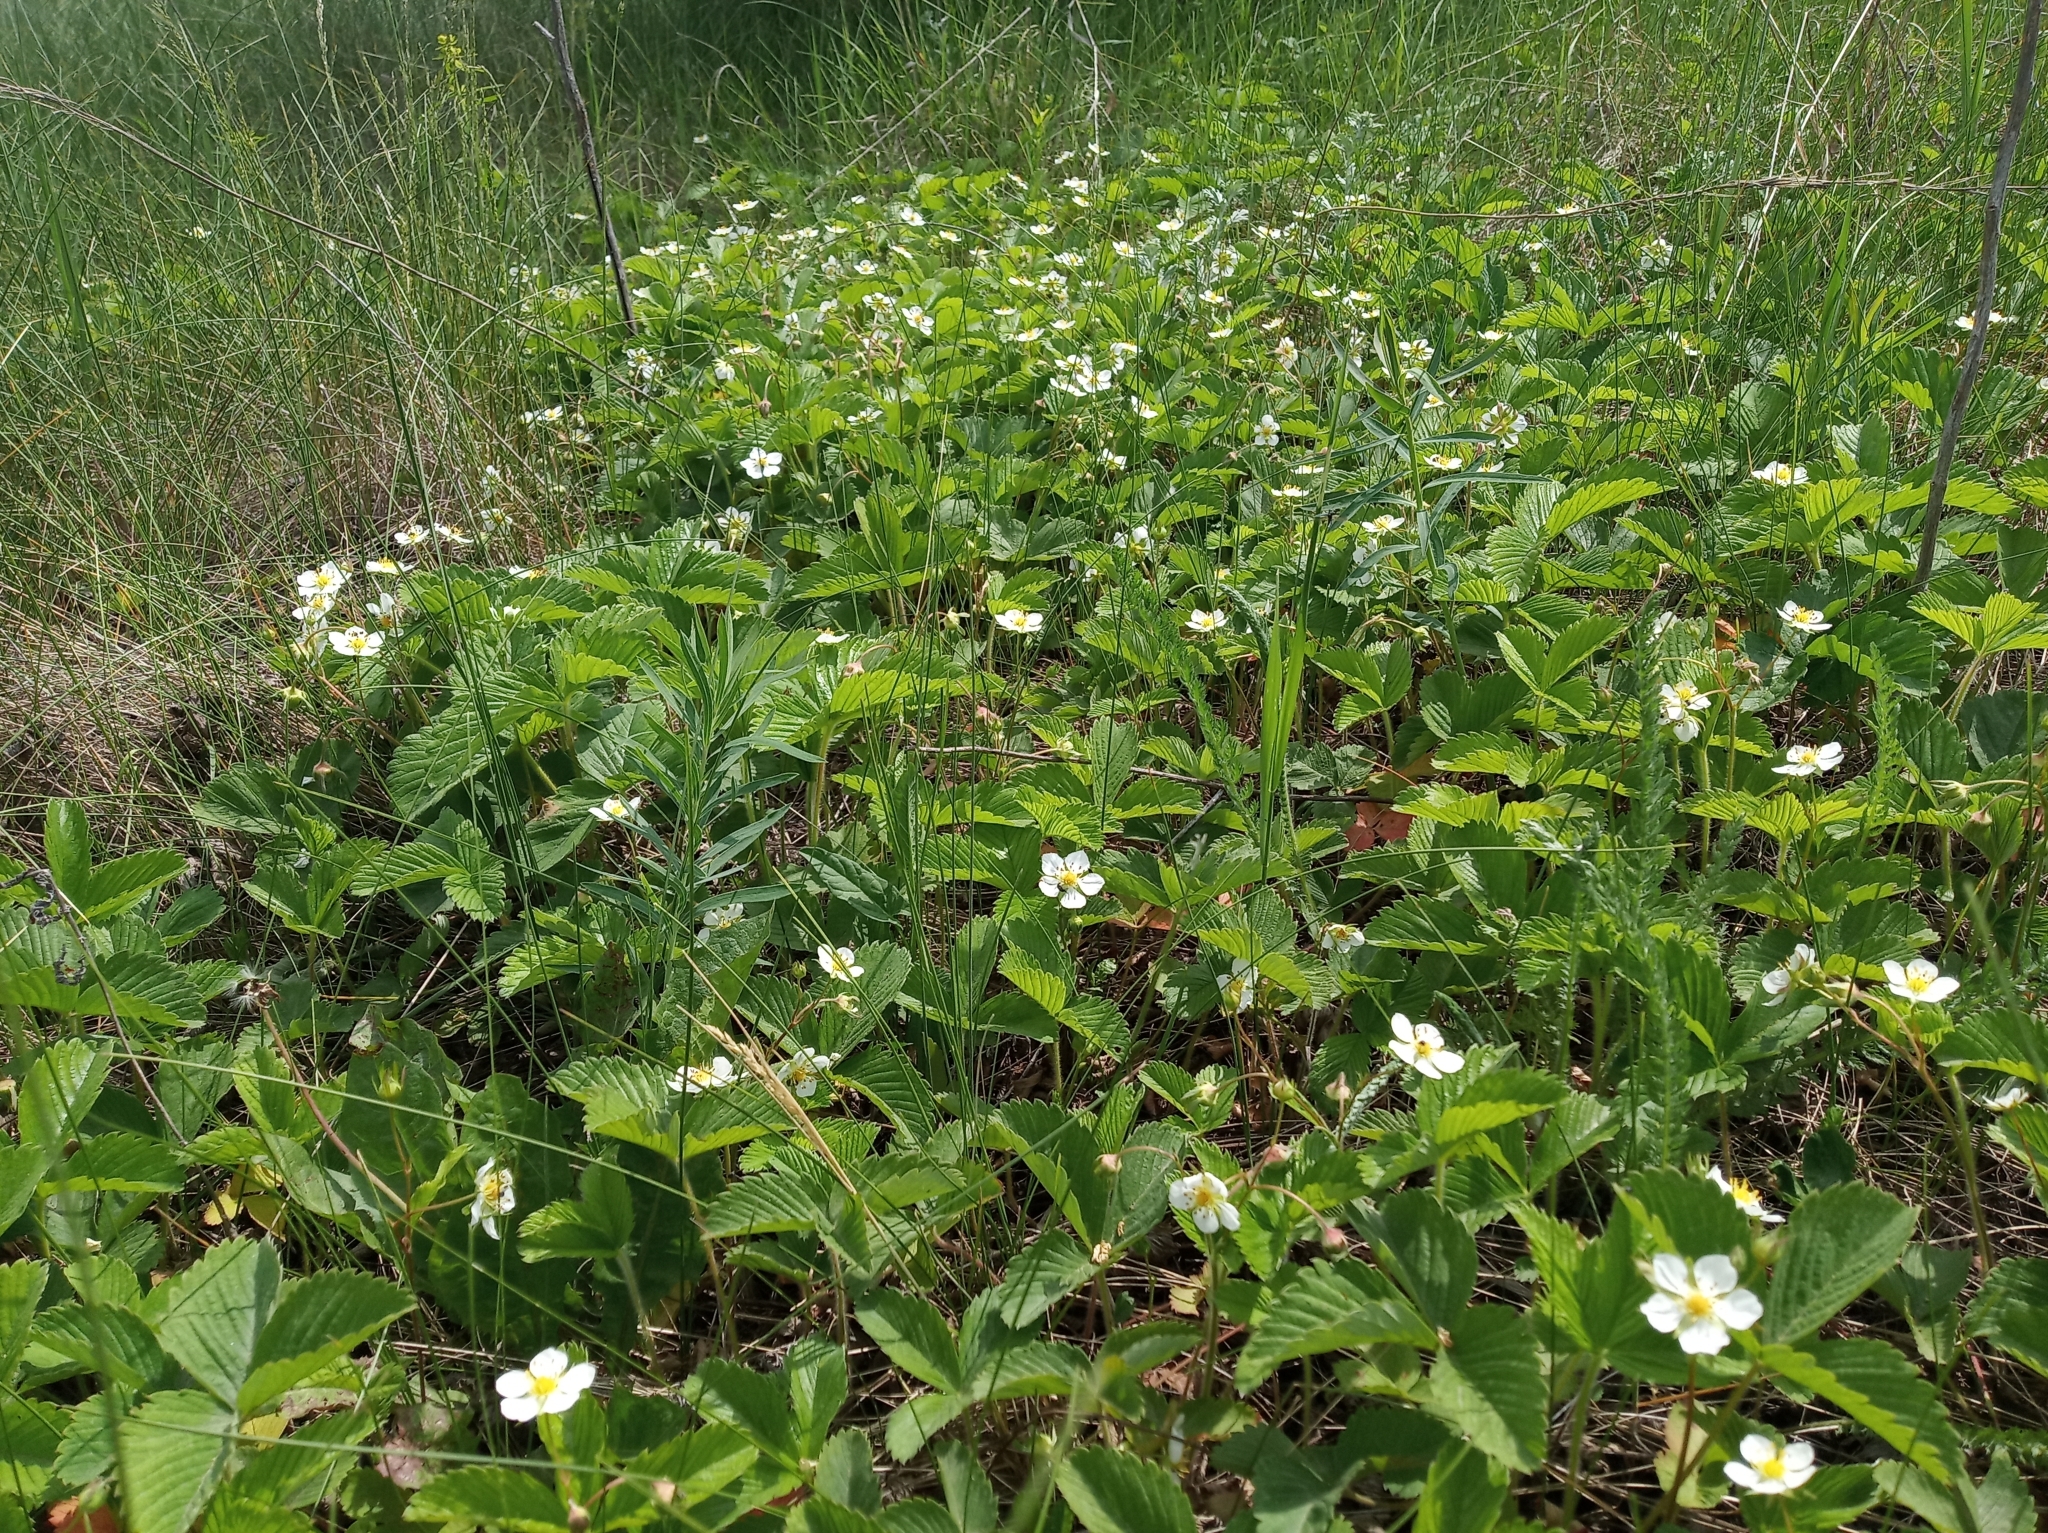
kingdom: Plantae
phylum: Tracheophyta
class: Magnoliopsida
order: Rosales
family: Rosaceae
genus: Fragaria
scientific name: Fragaria viridis
